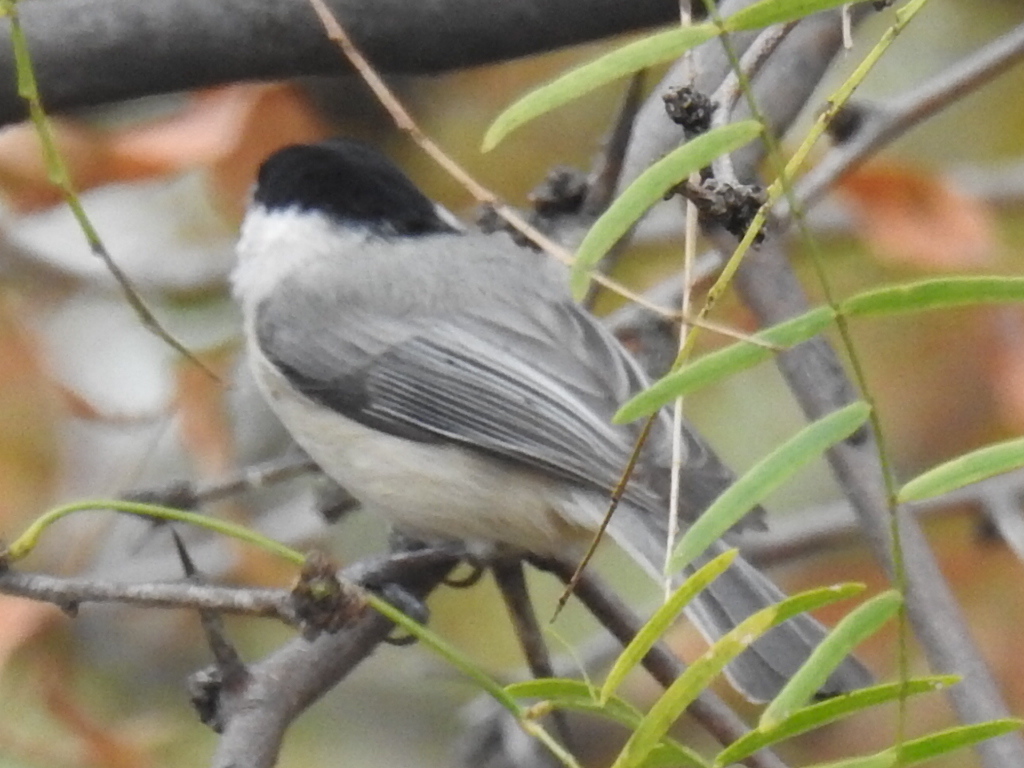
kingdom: Animalia
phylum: Chordata
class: Aves
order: Passeriformes
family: Paridae
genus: Poecile
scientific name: Poecile carolinensis
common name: Carolina chickadee
